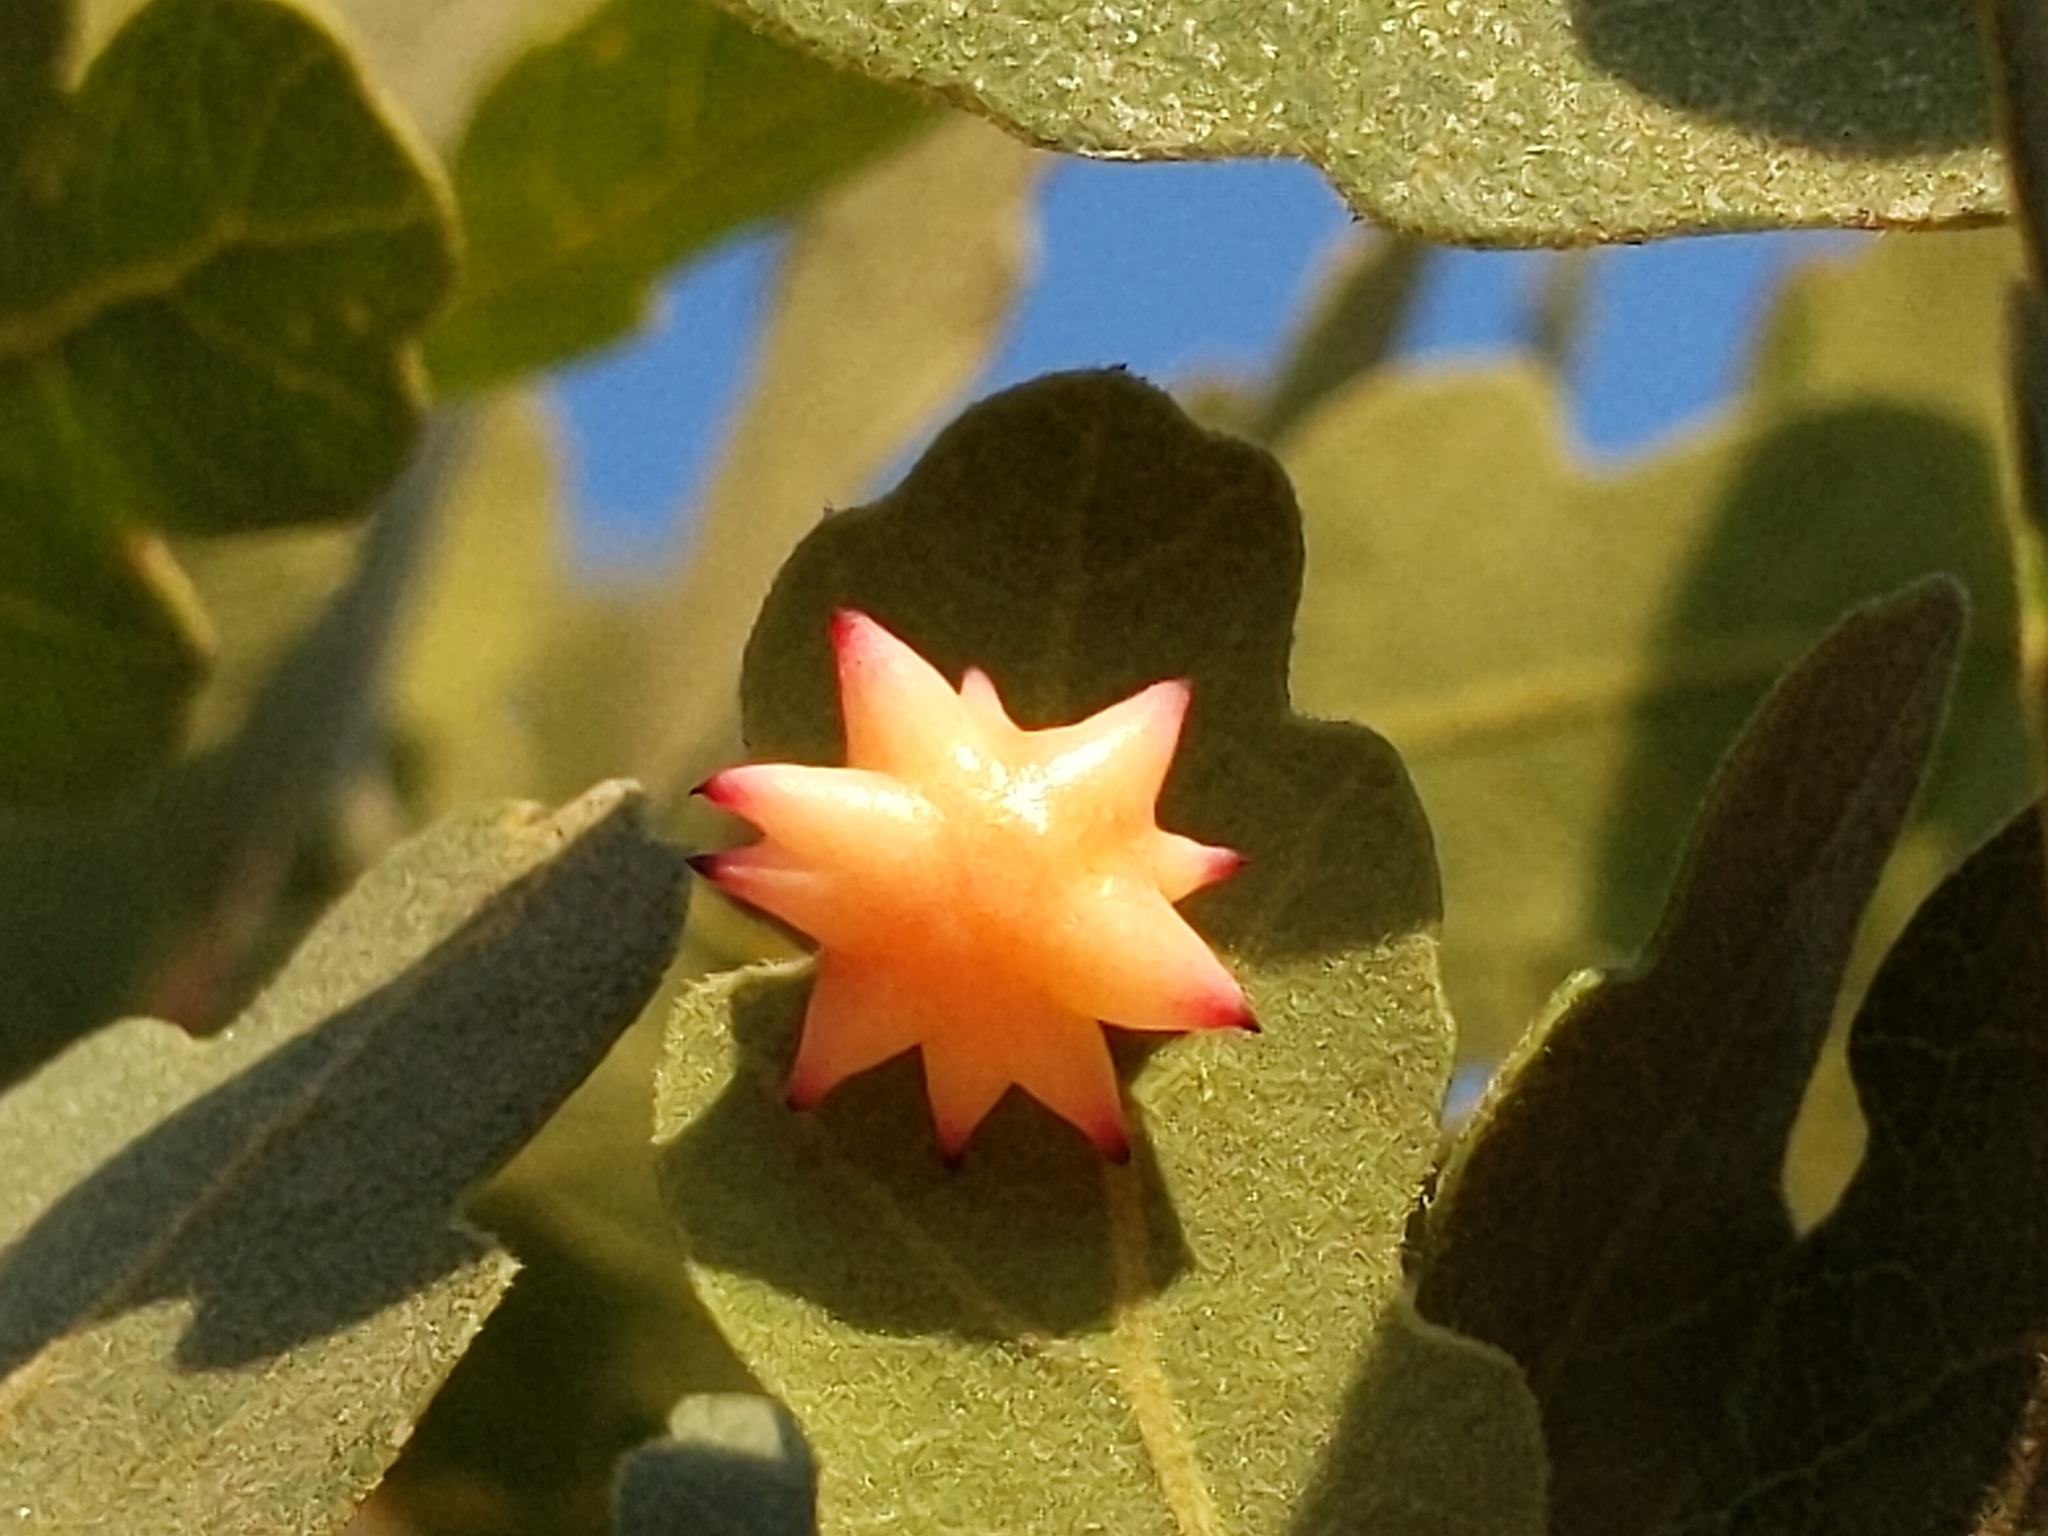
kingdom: Animalia
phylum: Arthropoda
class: Insecta
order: Hymenoptera
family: Cynipidae
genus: Cynips
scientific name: Cynips douglasi
